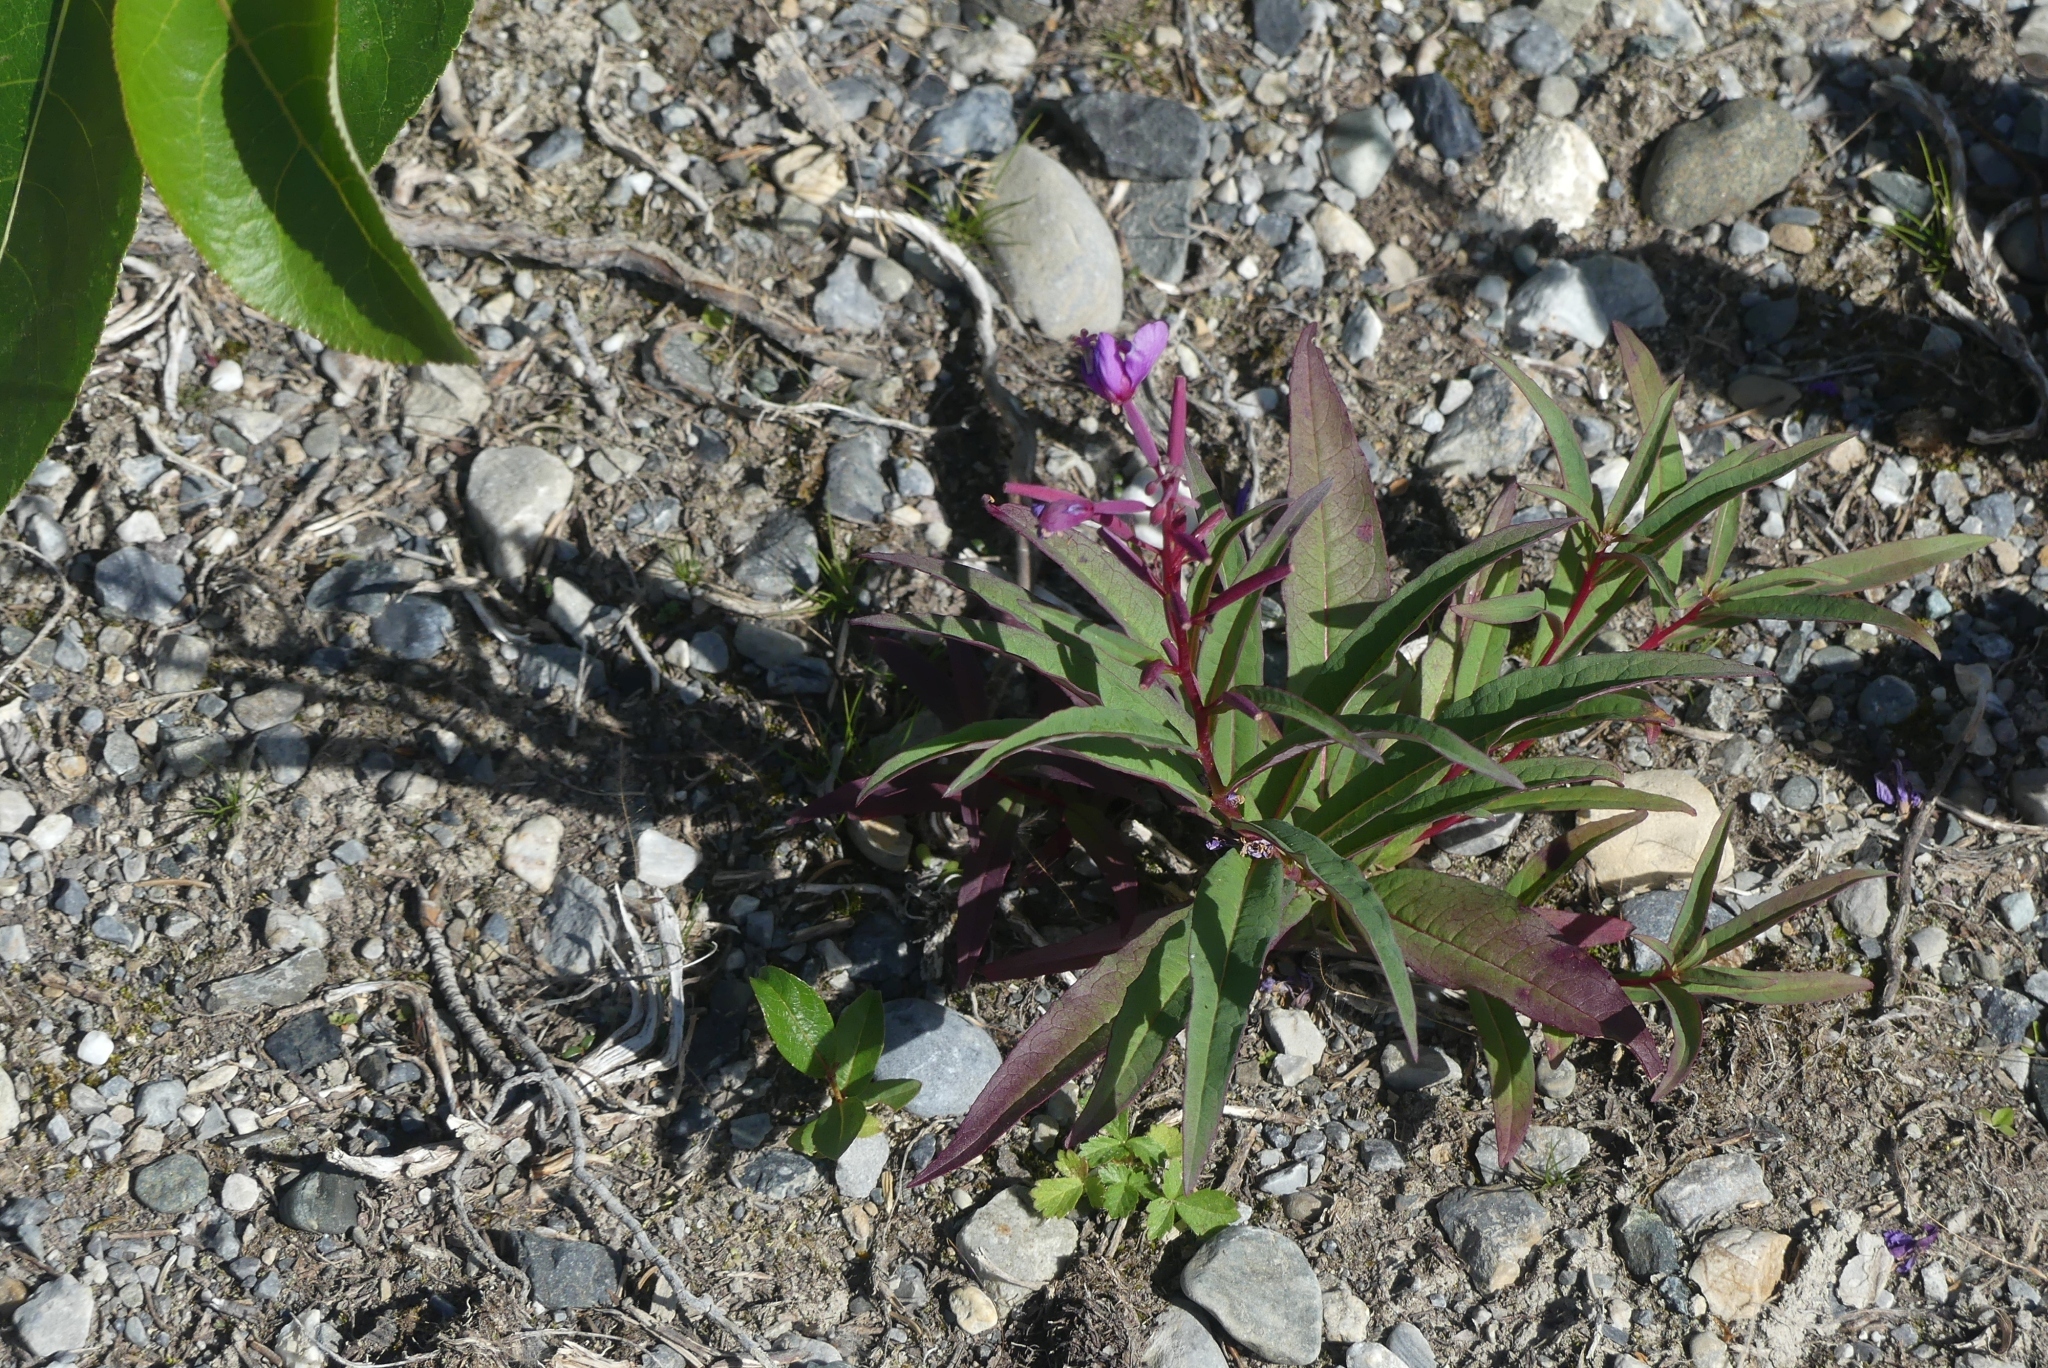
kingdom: Plantae
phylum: Tracheophyta
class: Magnoliopsida
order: Myrtales
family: Onagraceae
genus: Chamaenerion
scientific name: Chamaenerion angustifolium
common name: Fireweed
